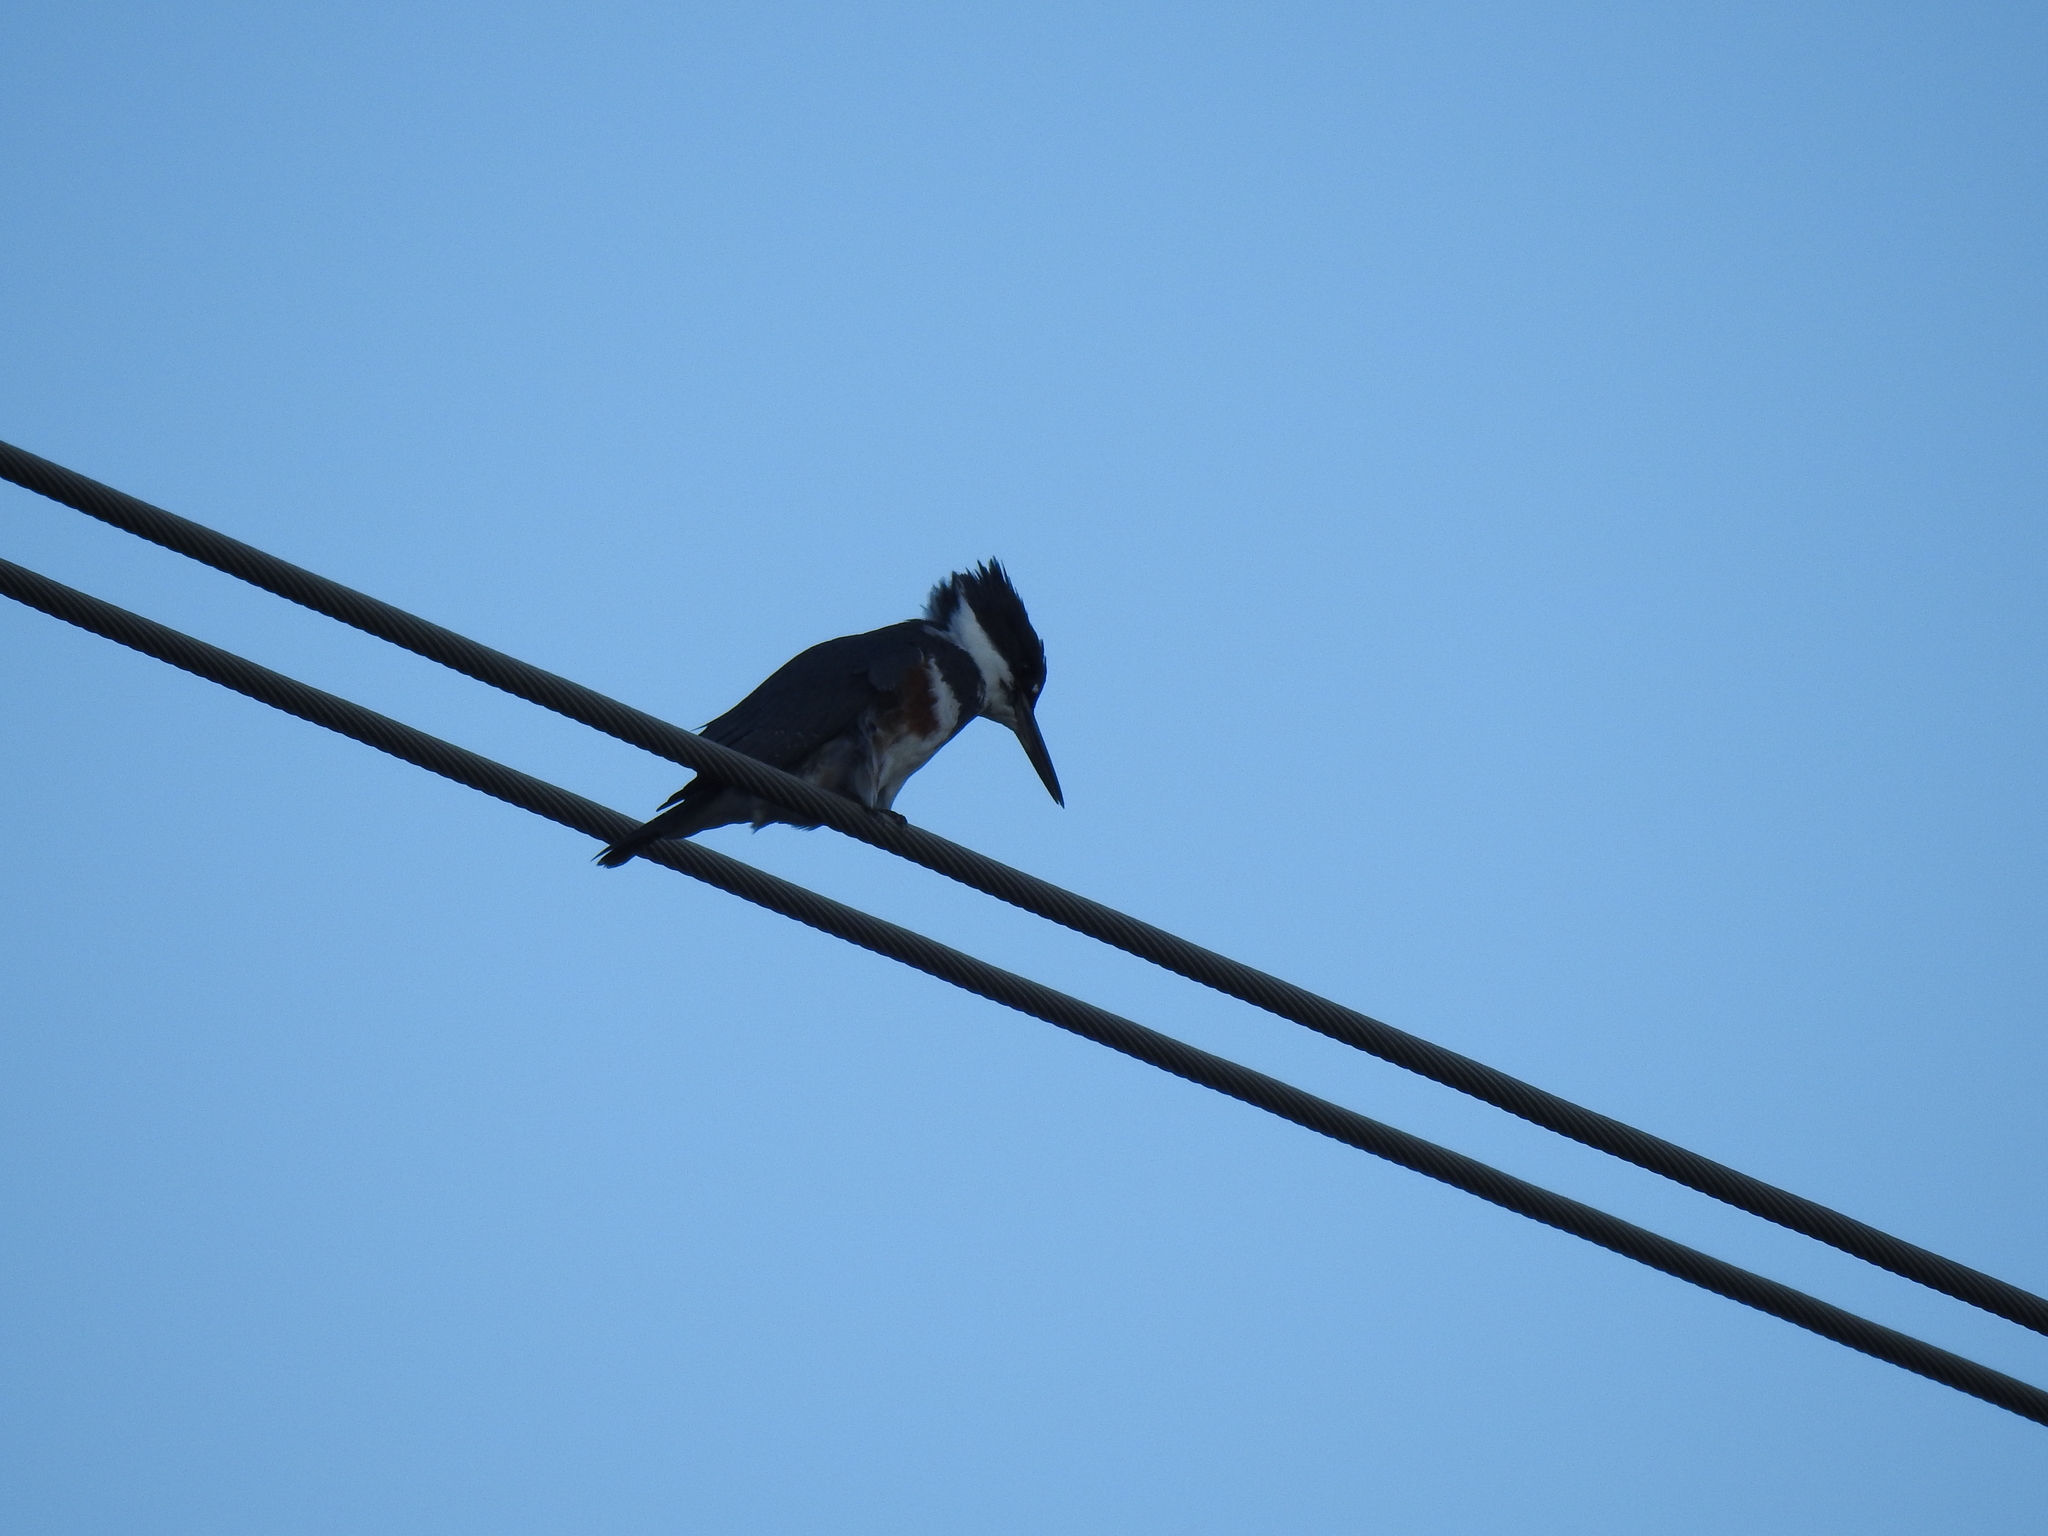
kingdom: Animalia
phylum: Chordata
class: Aves
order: Coraciiformes
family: Alcedinidae
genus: Megaceryle
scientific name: Megaceryle alcyon
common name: Belted kingfisher
